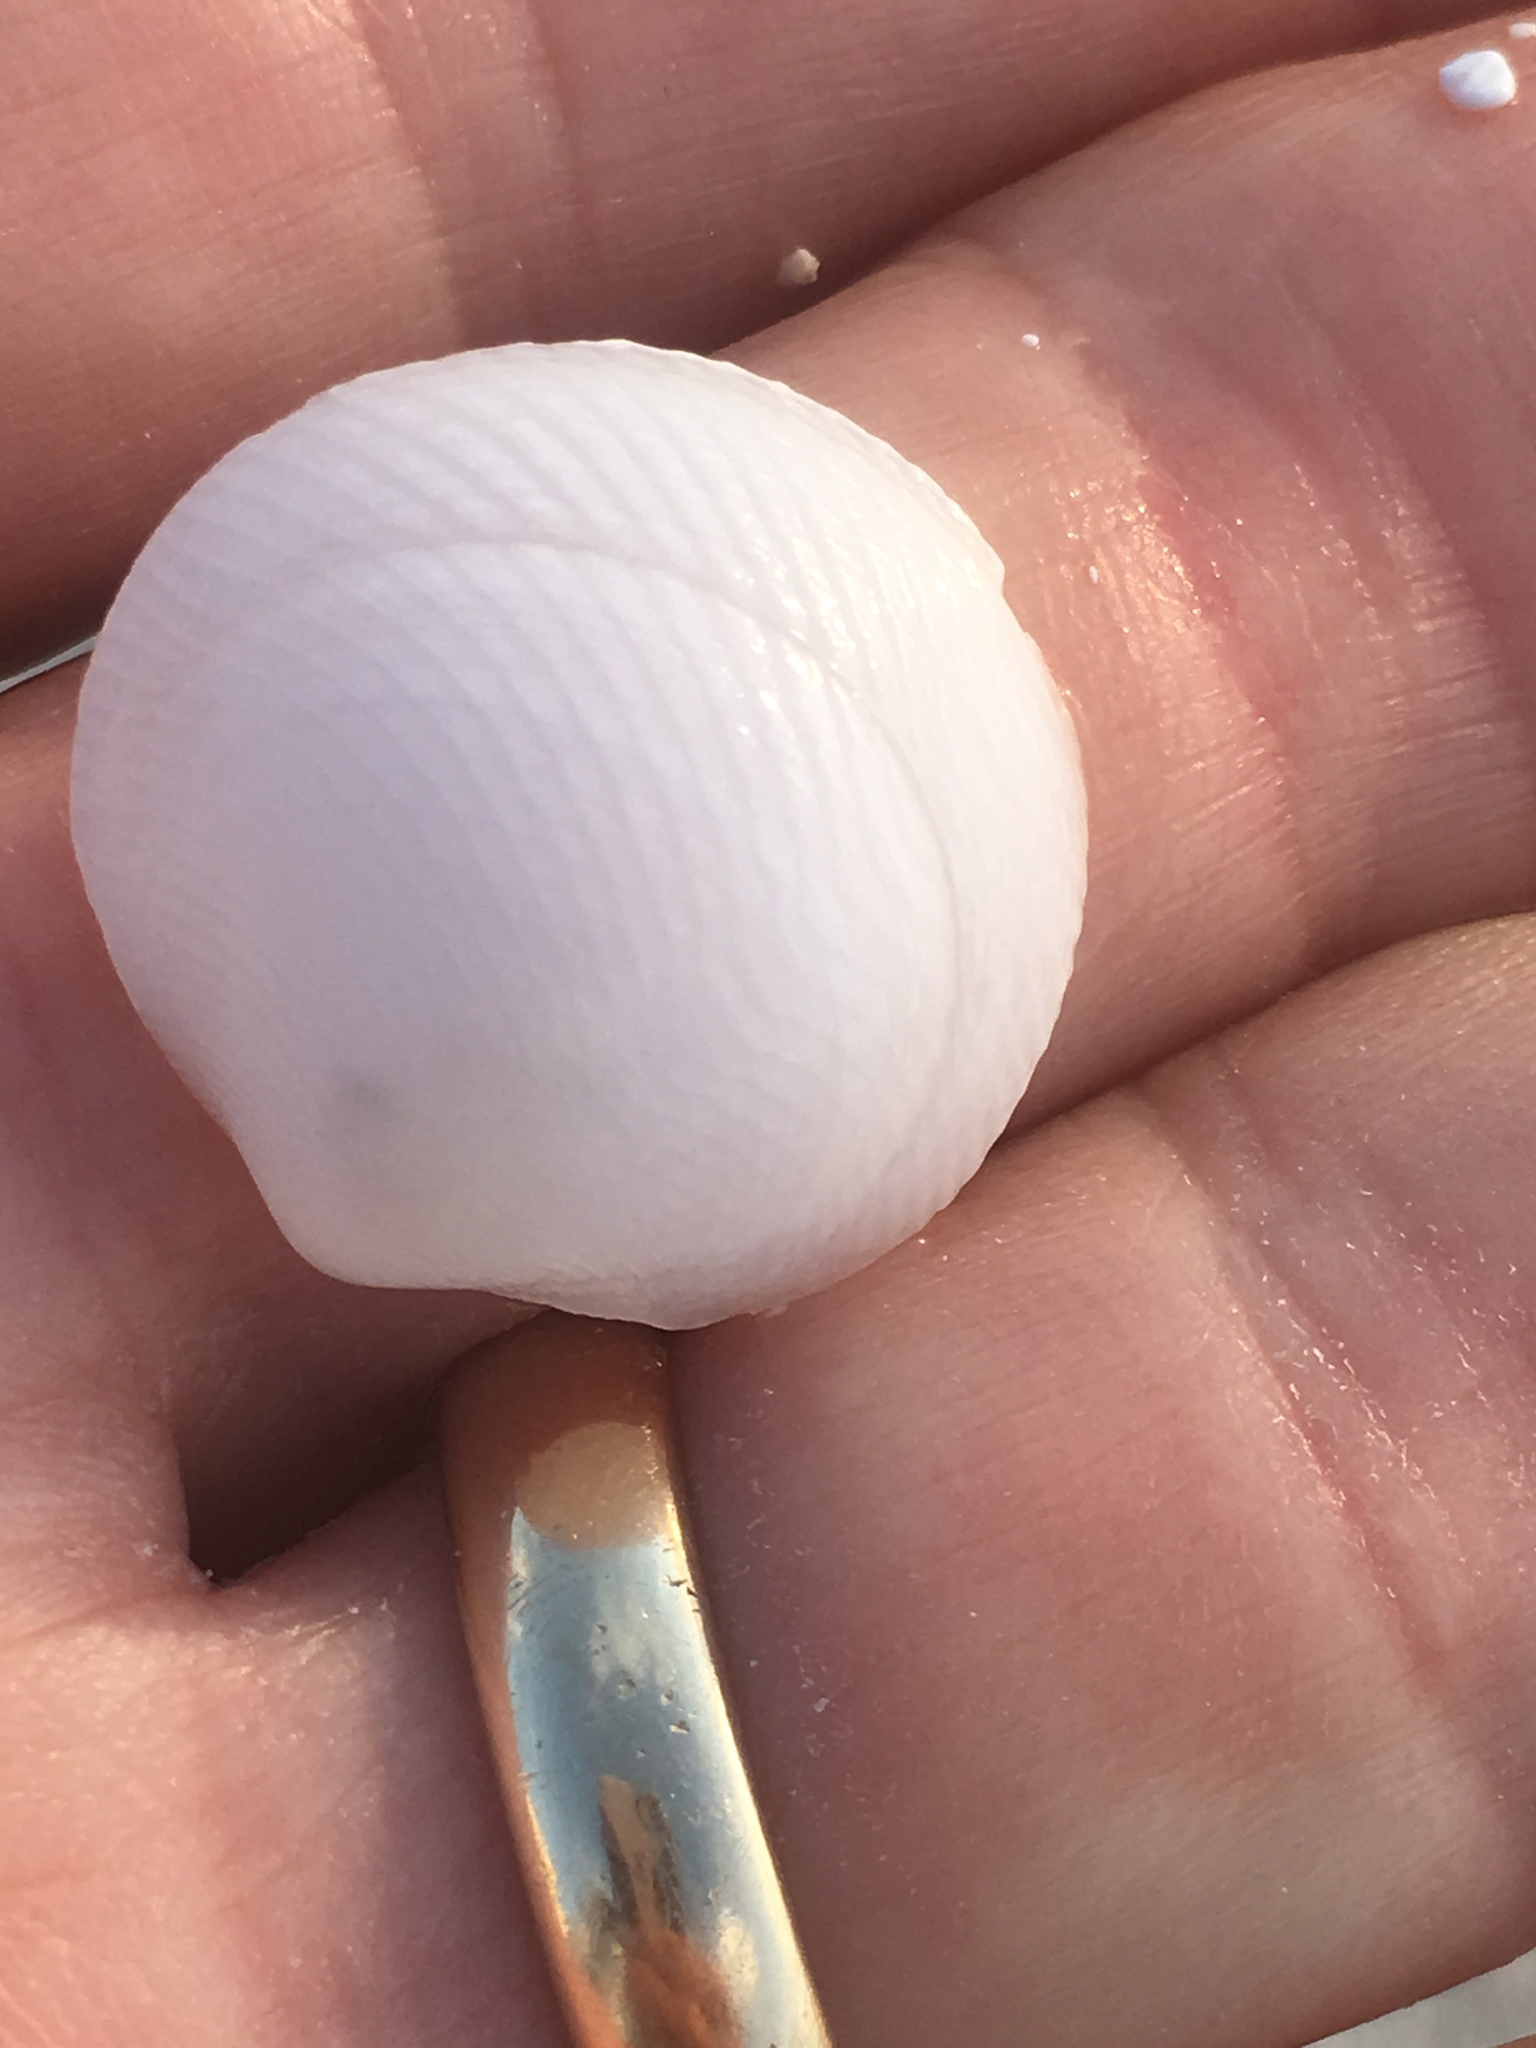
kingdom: Animalia
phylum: Mollusca
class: Bivalvia
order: Lucinida
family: Lucinidae
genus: Divalinga
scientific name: Divalinga quadrisulcata
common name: Cross-hatched lucine
